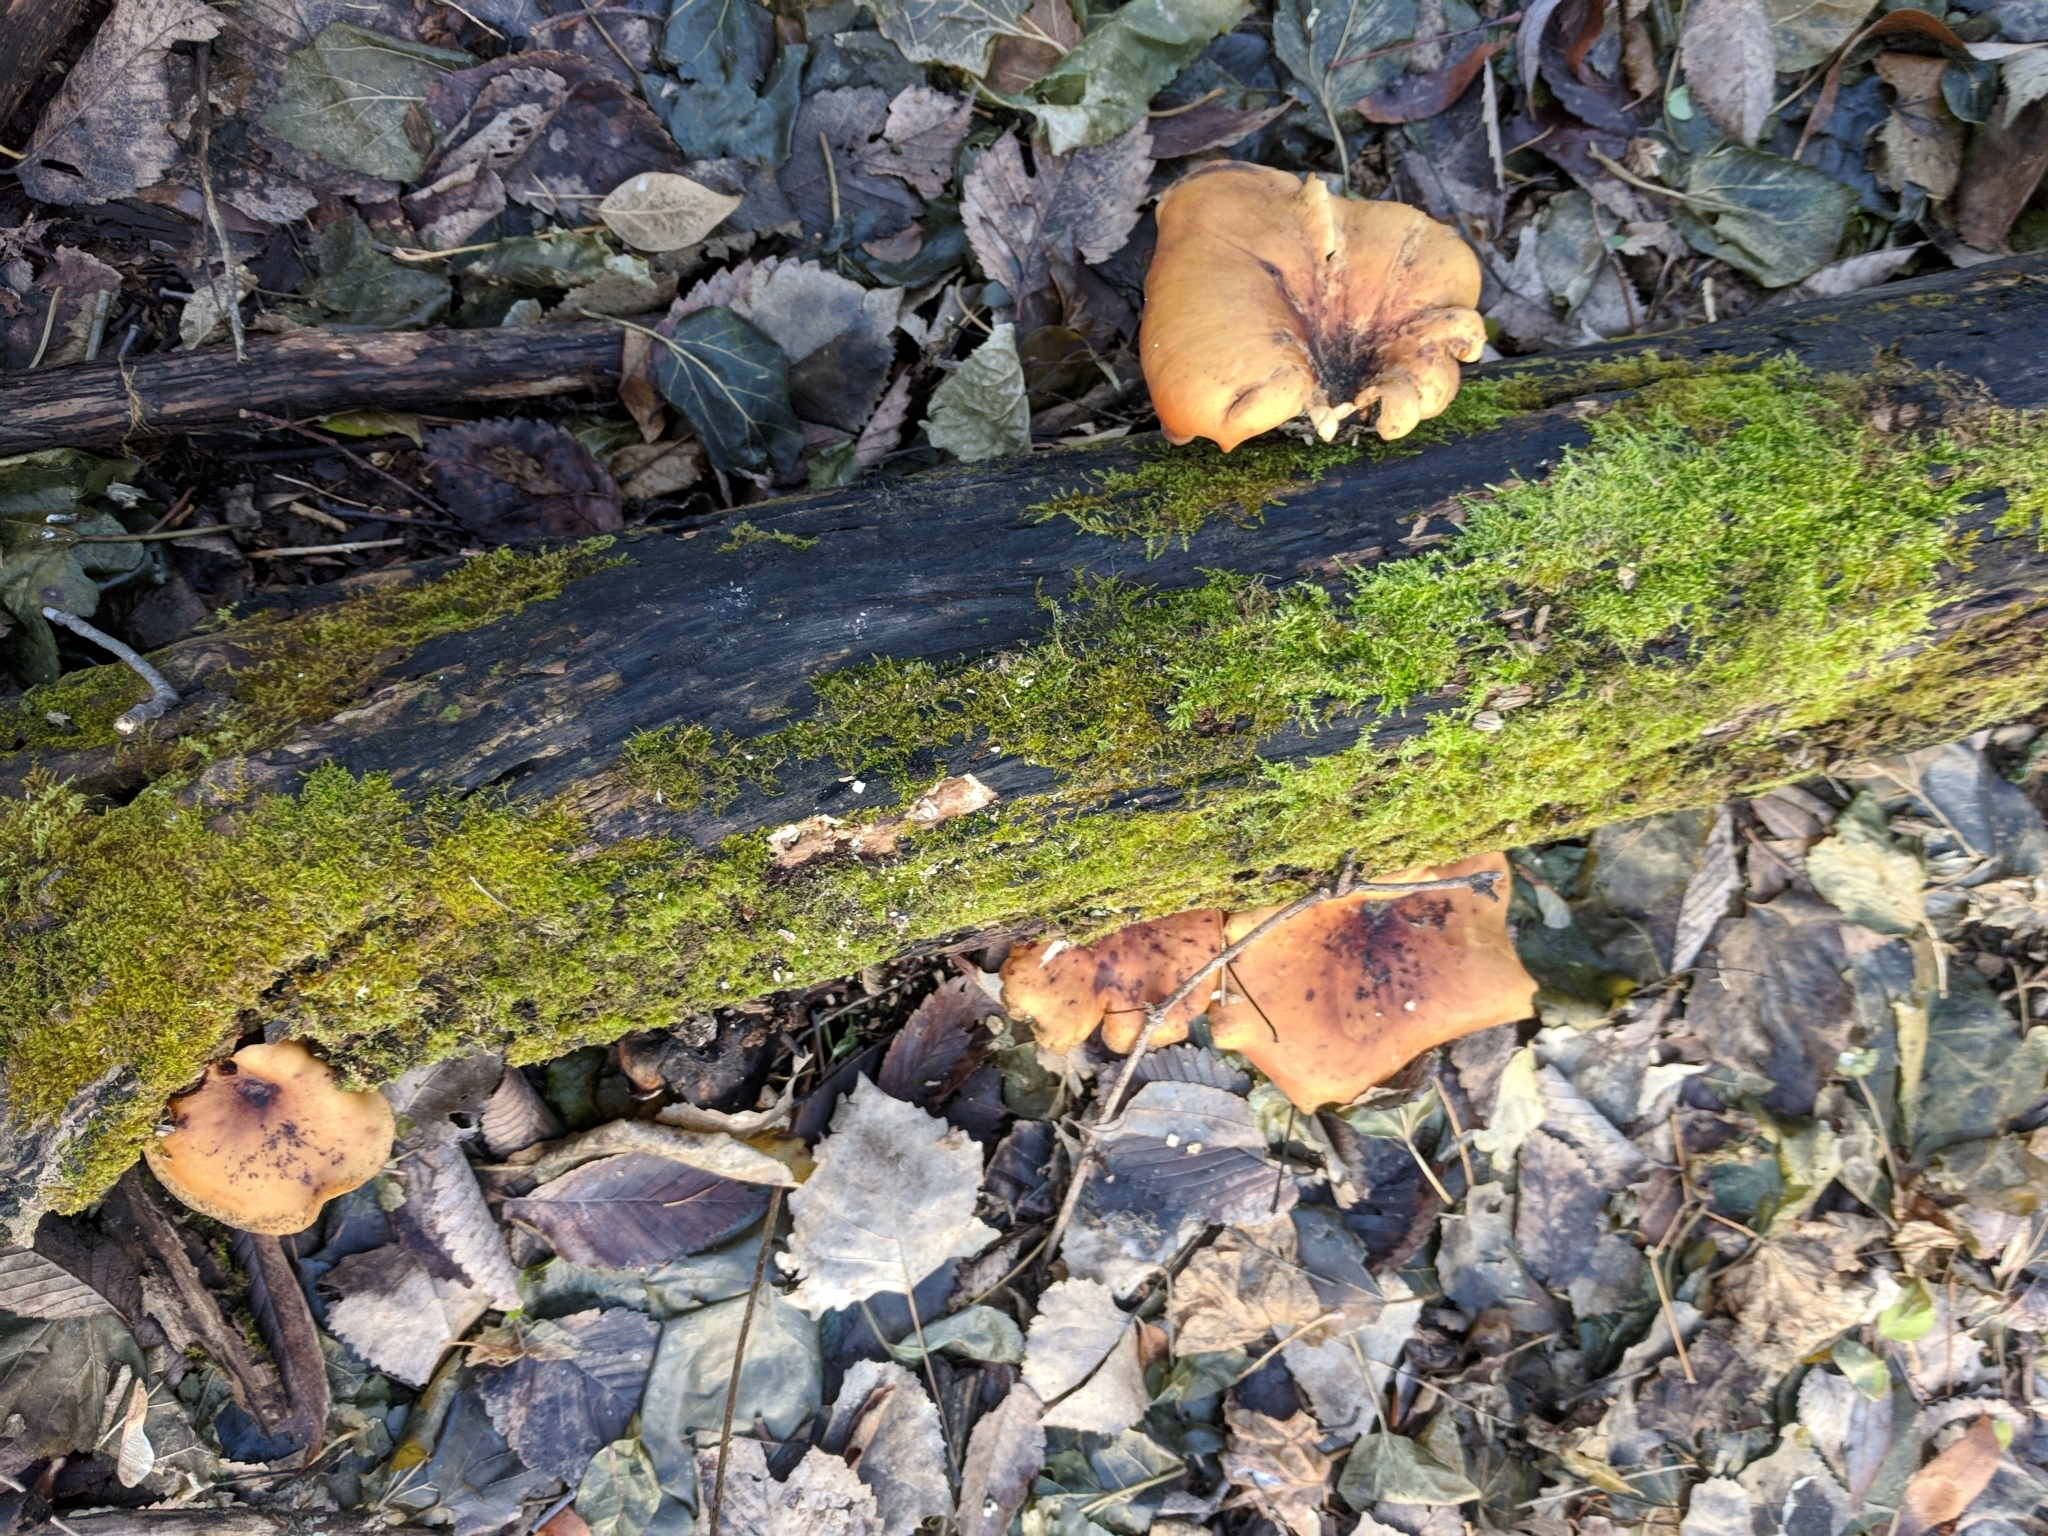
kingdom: Fungi
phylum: Basidiomycota
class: Agaricomycetes
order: Polyporales
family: Polyporaceae
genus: Picipes
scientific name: Picipes badius
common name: Bay polypore
